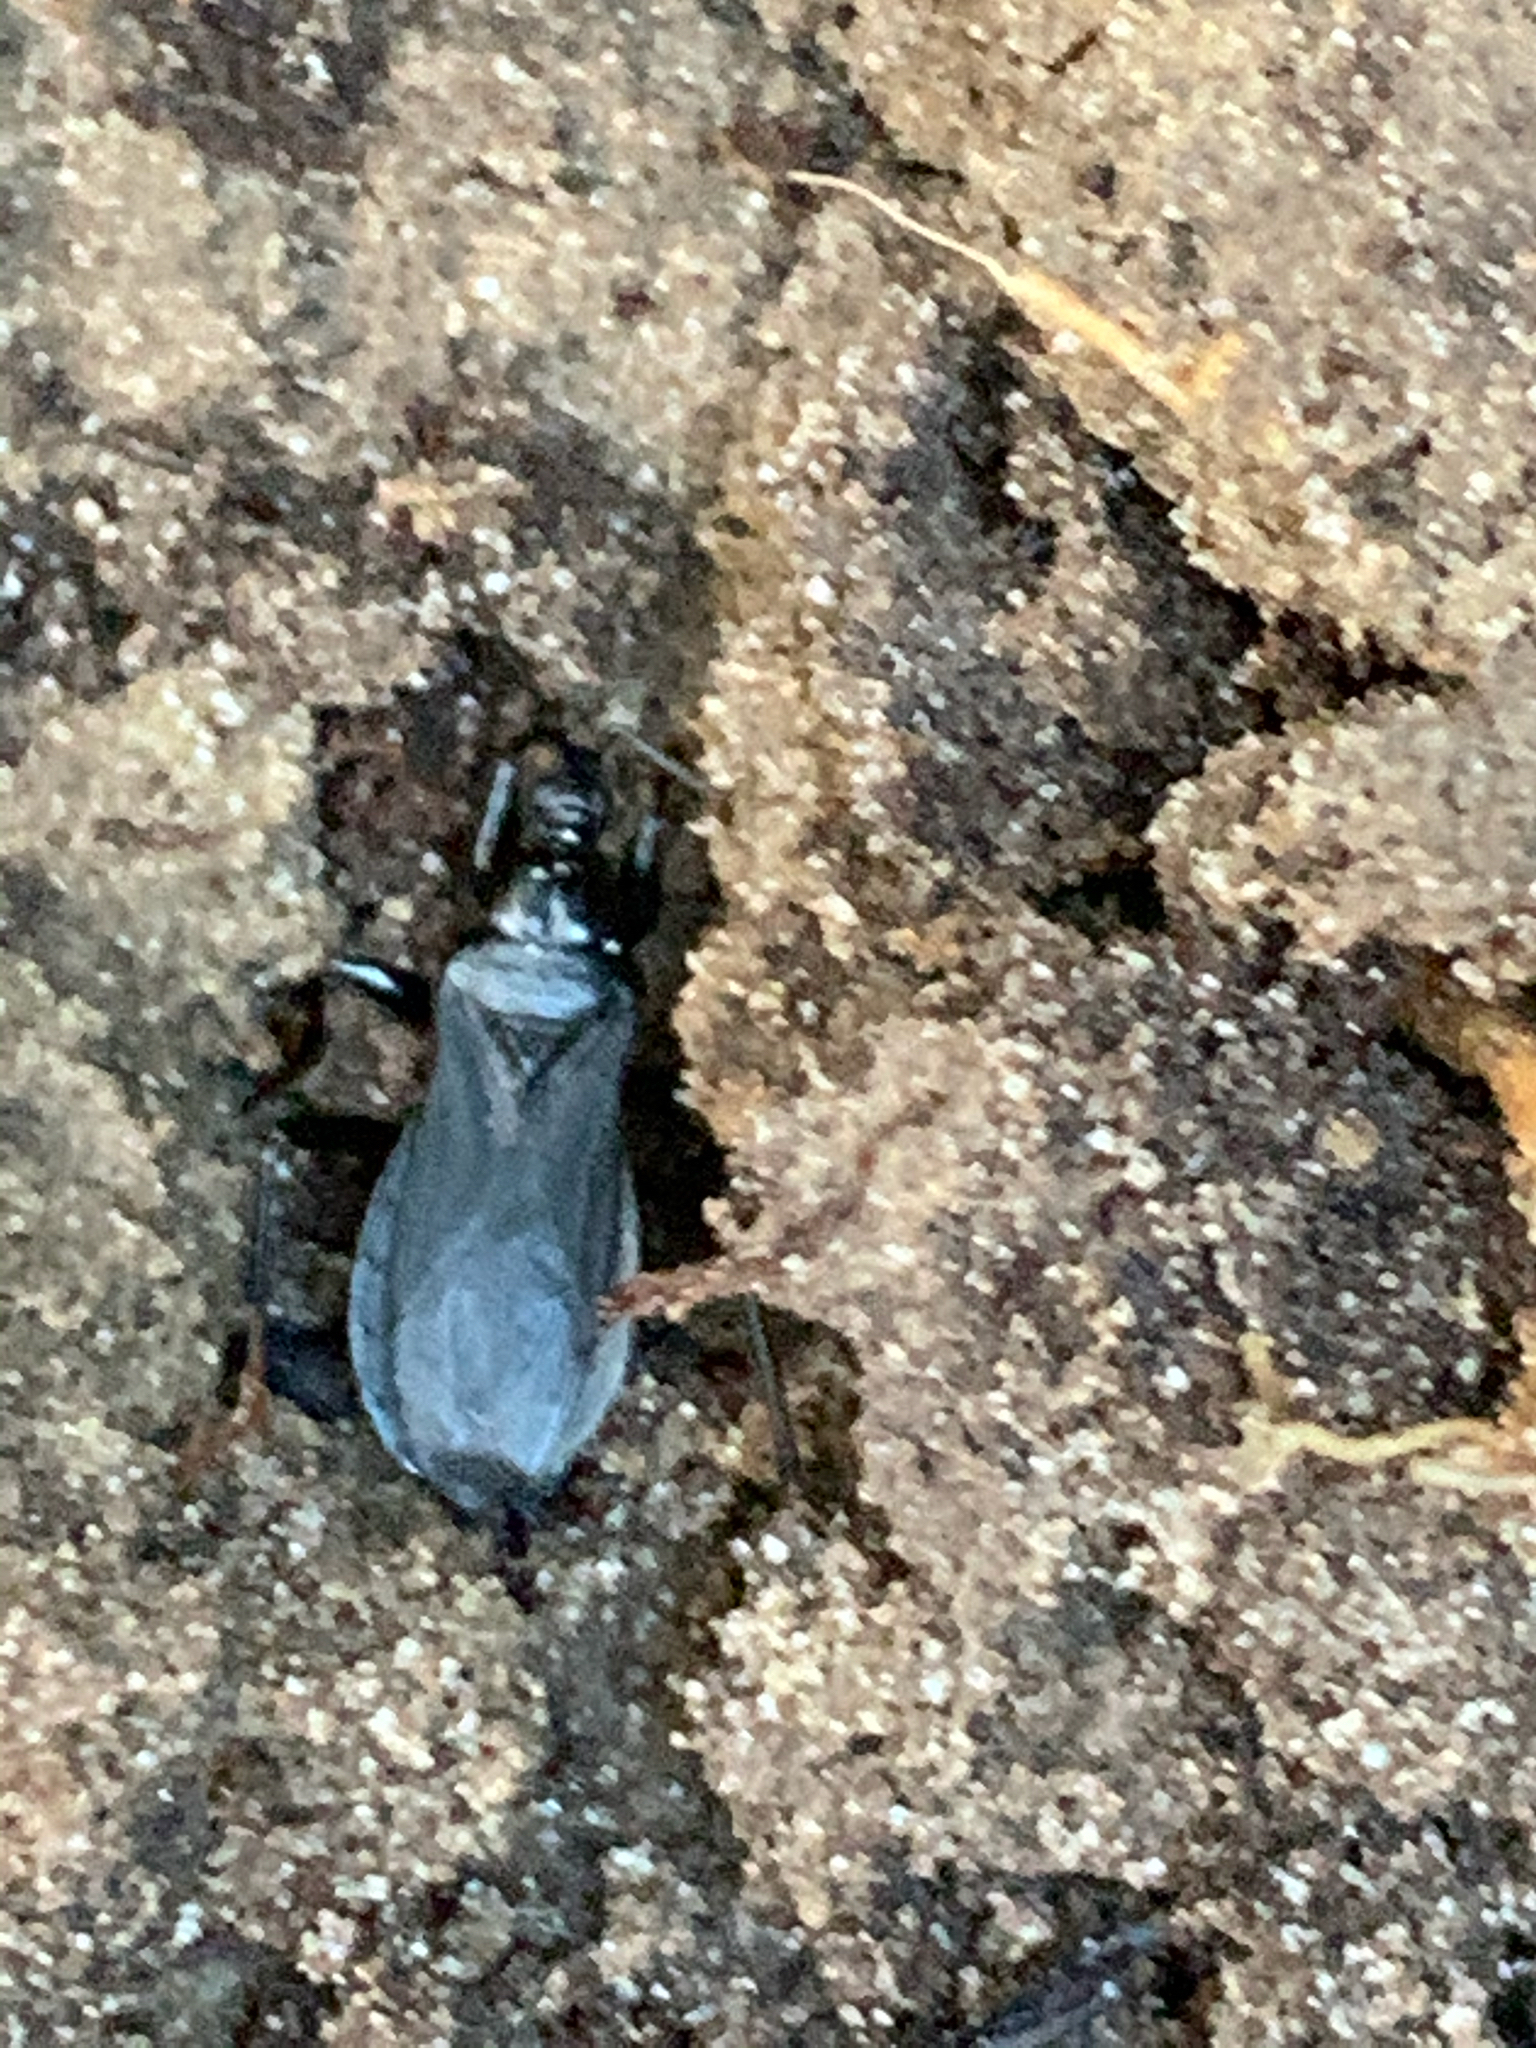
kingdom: Animalia
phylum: Arthropoda
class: Insecta
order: Hemiptera
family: Reduviidae
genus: Melanolestes
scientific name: Melanolestes picipes
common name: Assassin bug
